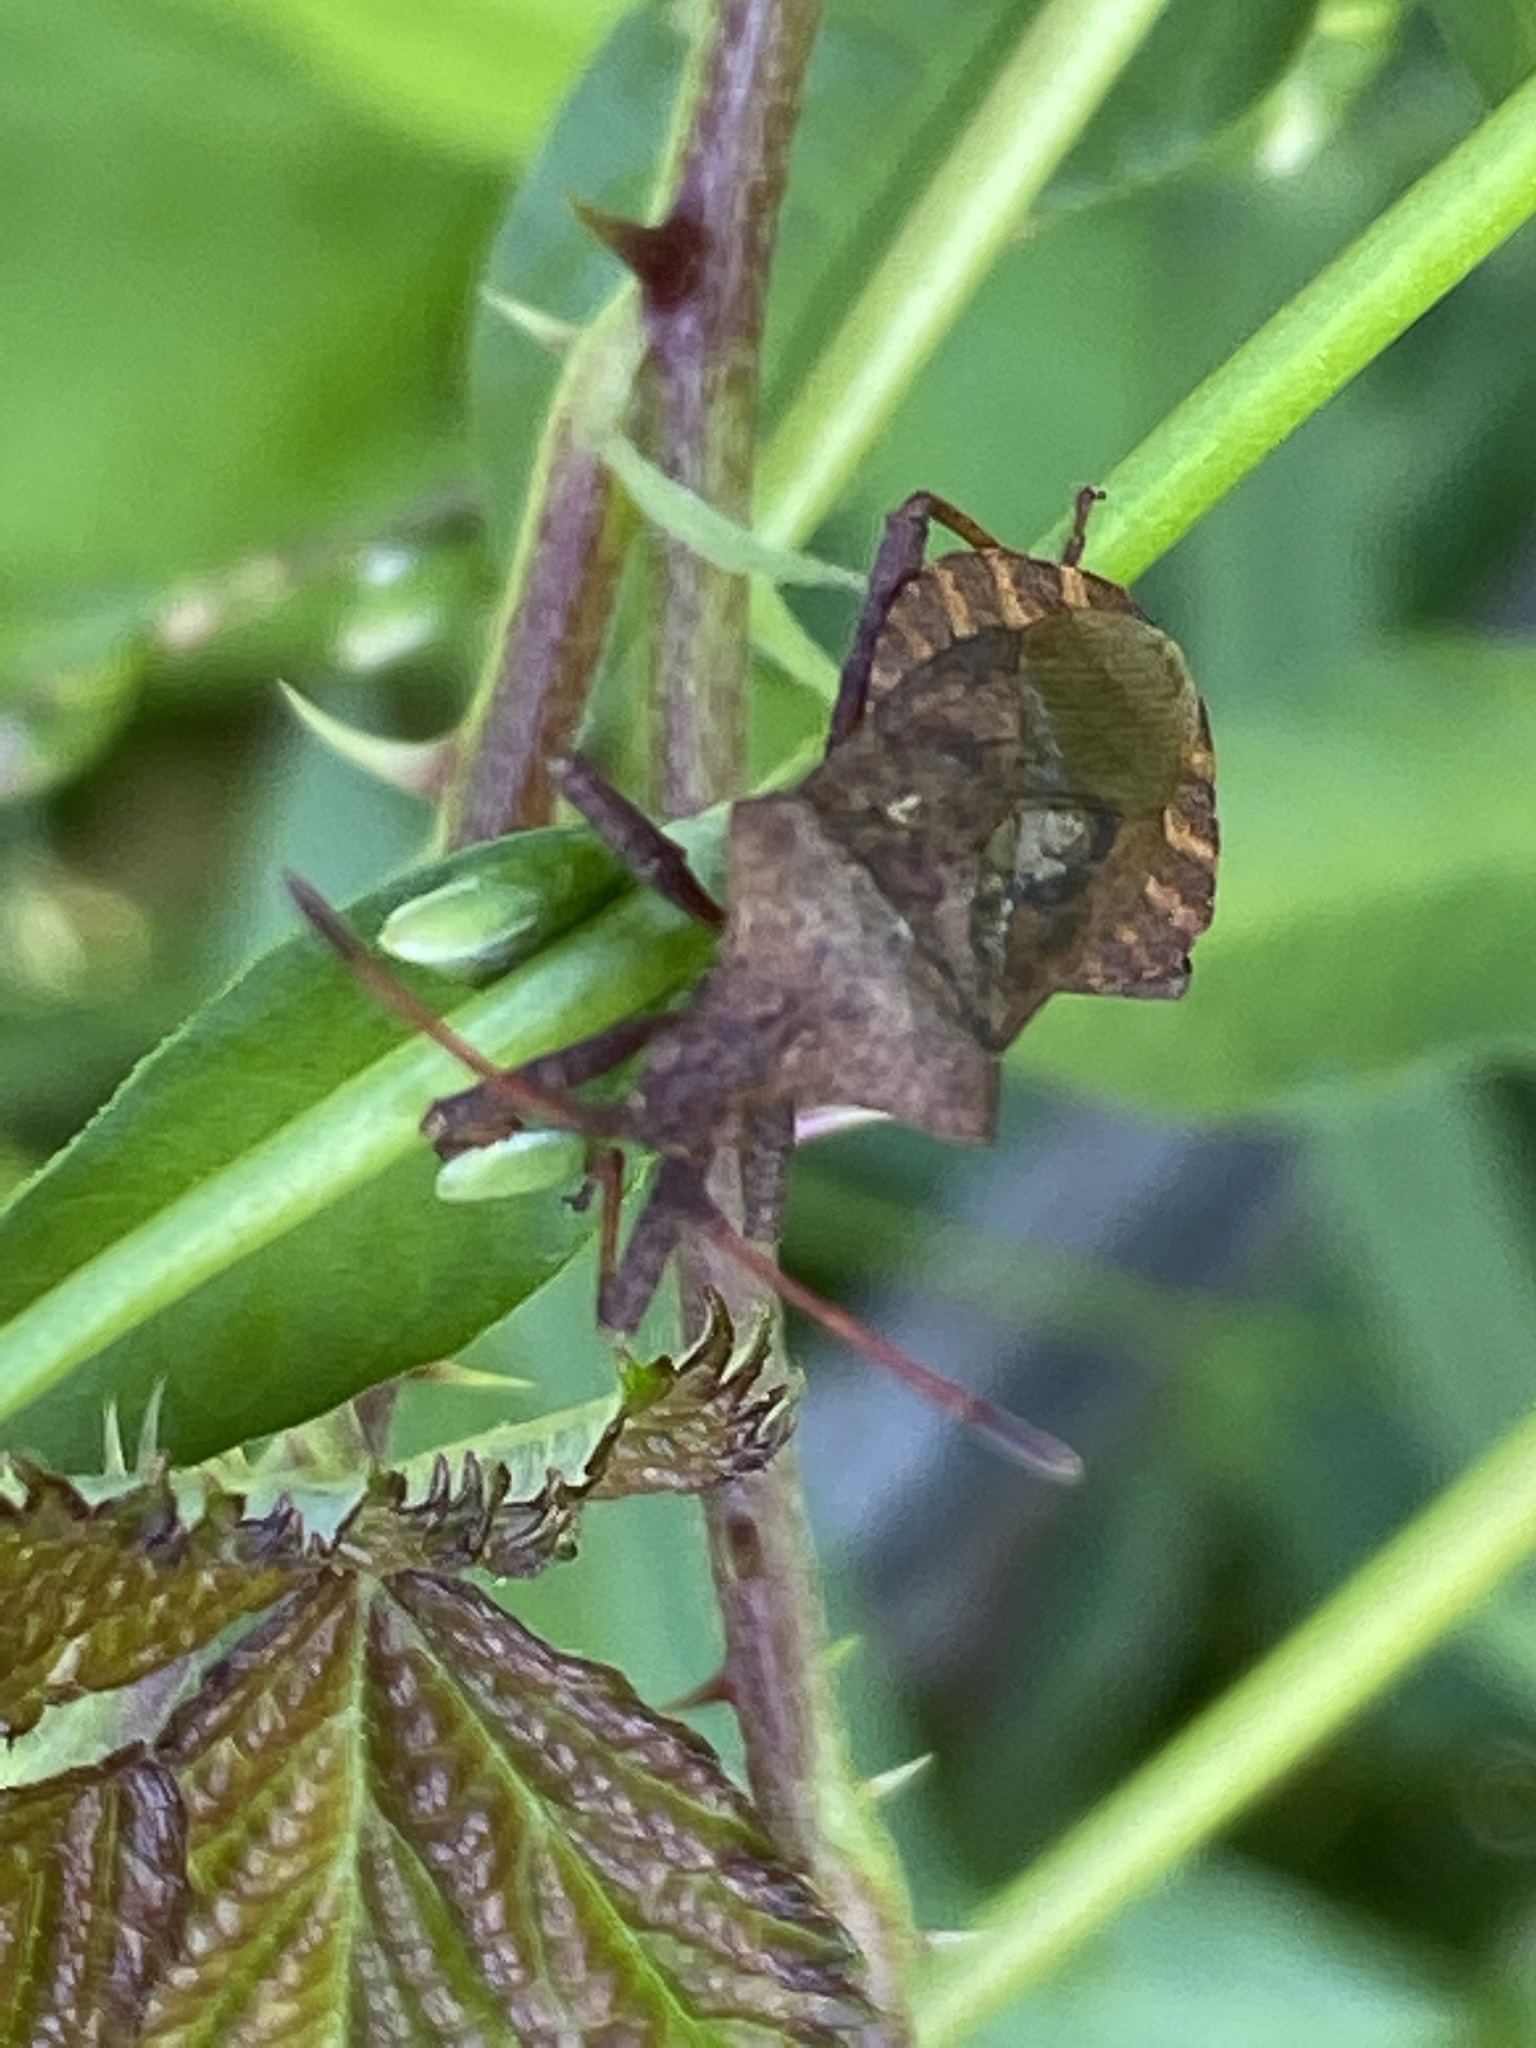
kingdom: Animalia
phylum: Arthropoda
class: Insecta
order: Hemiptera
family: Coreidae
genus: Coreus
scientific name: Coreus marginatus
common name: Dock bug
